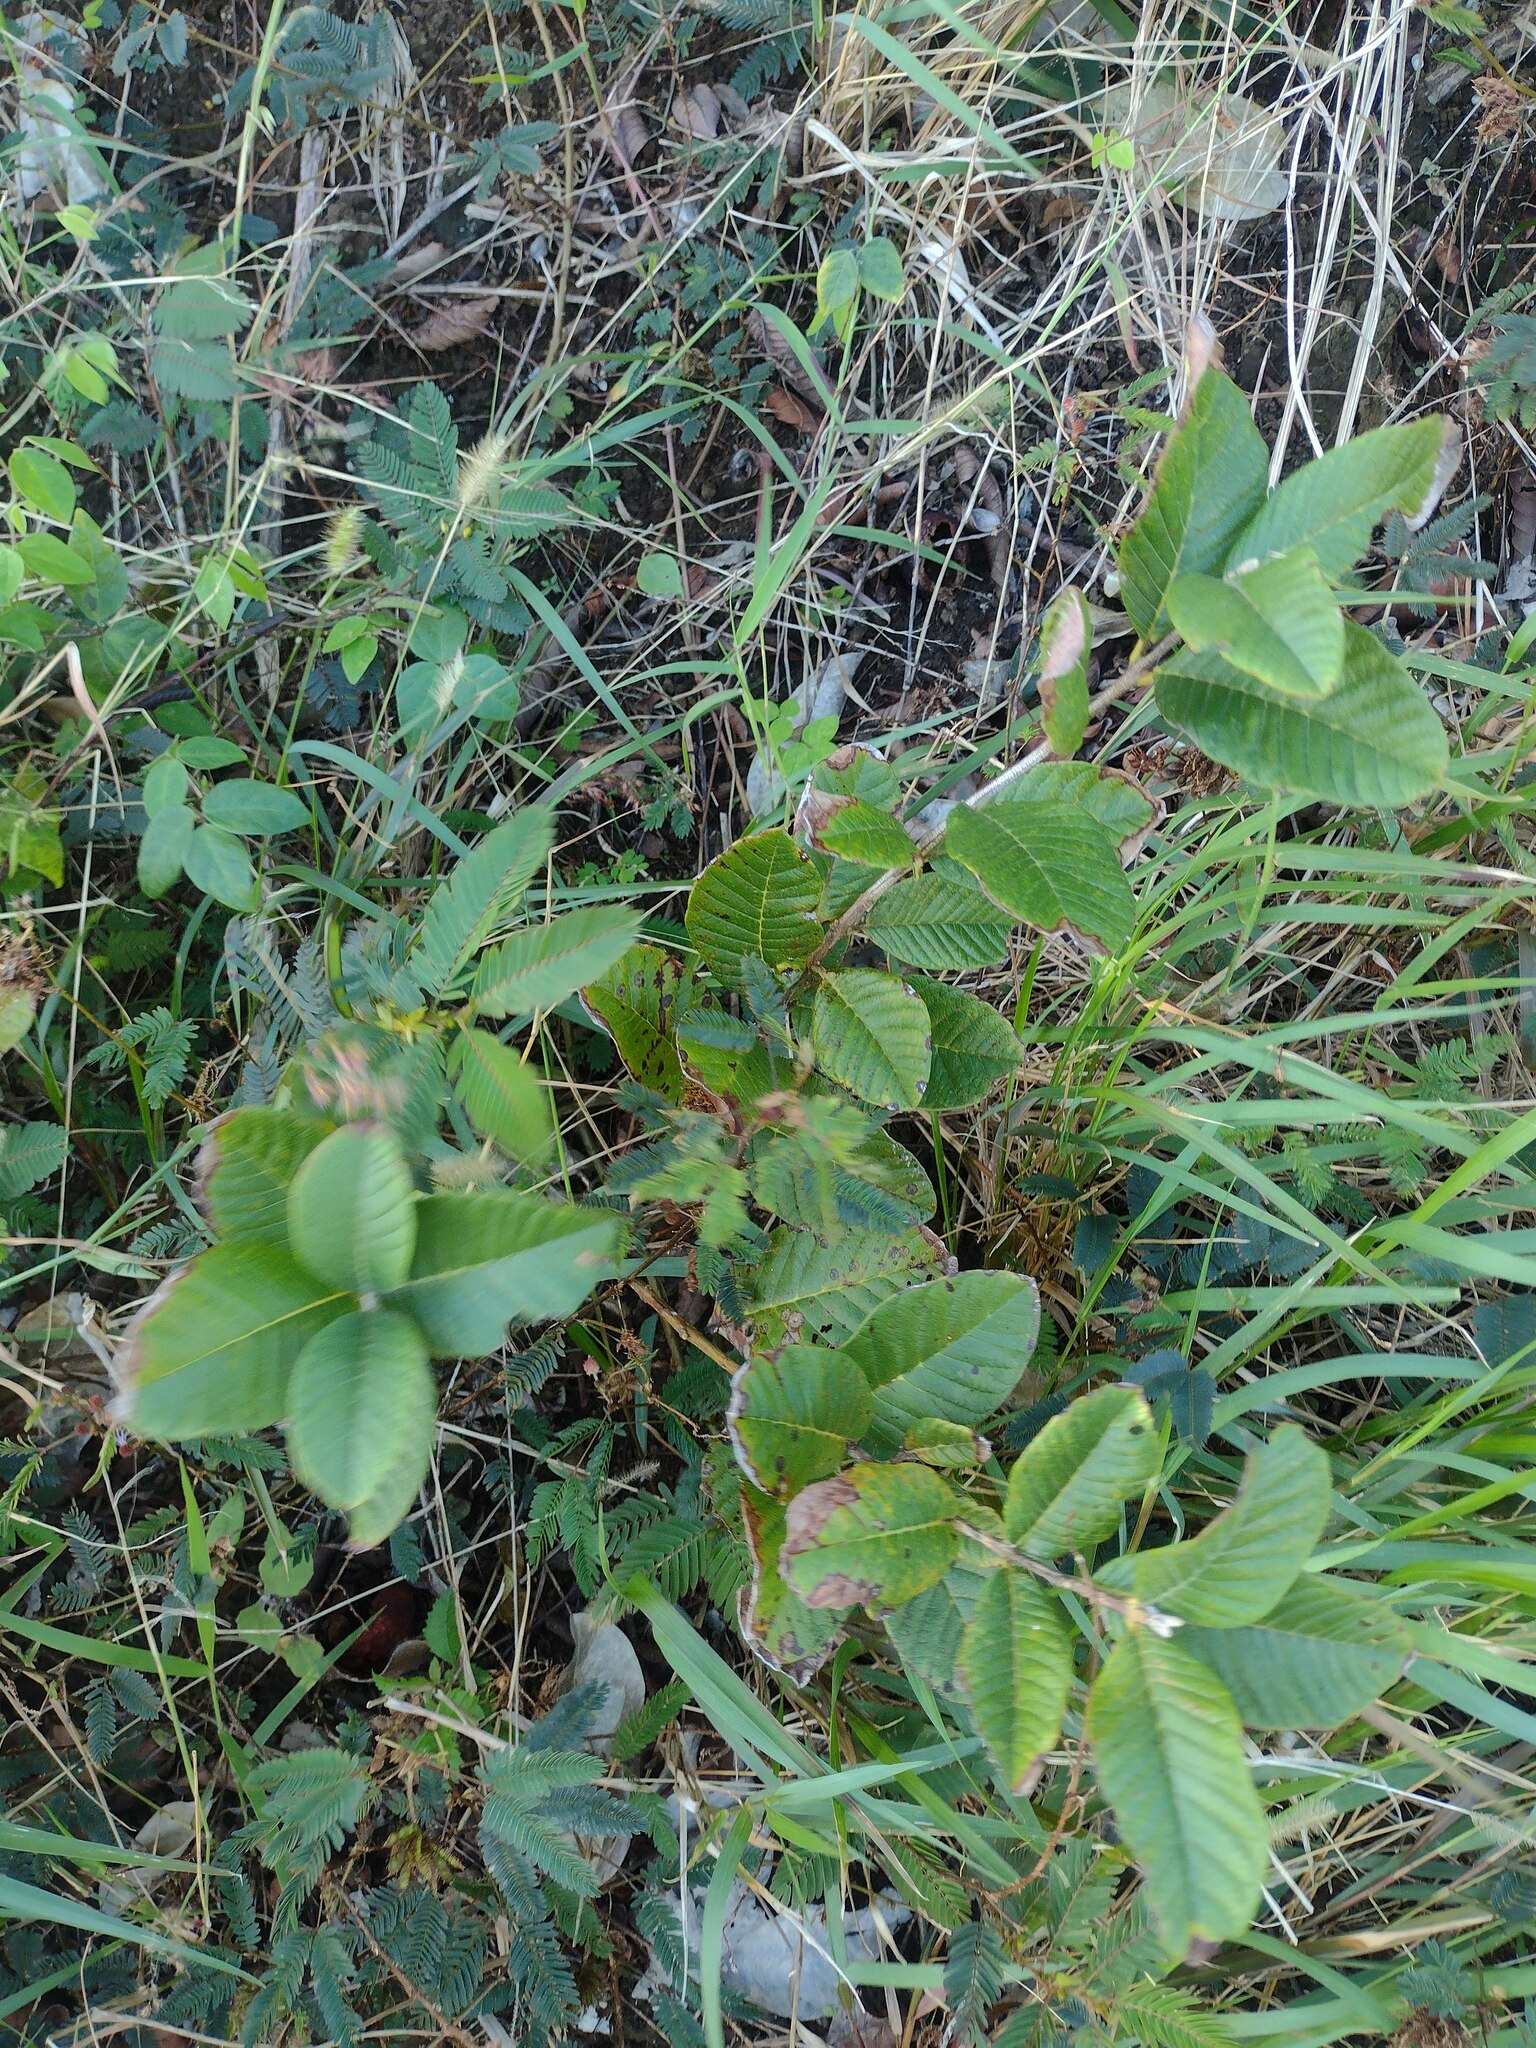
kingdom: Plantae
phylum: Tracheophyta
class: Magnoliopsida
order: Myrtales
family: Myrtaceae
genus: Psidium
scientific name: Psidium guajava
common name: Guava
